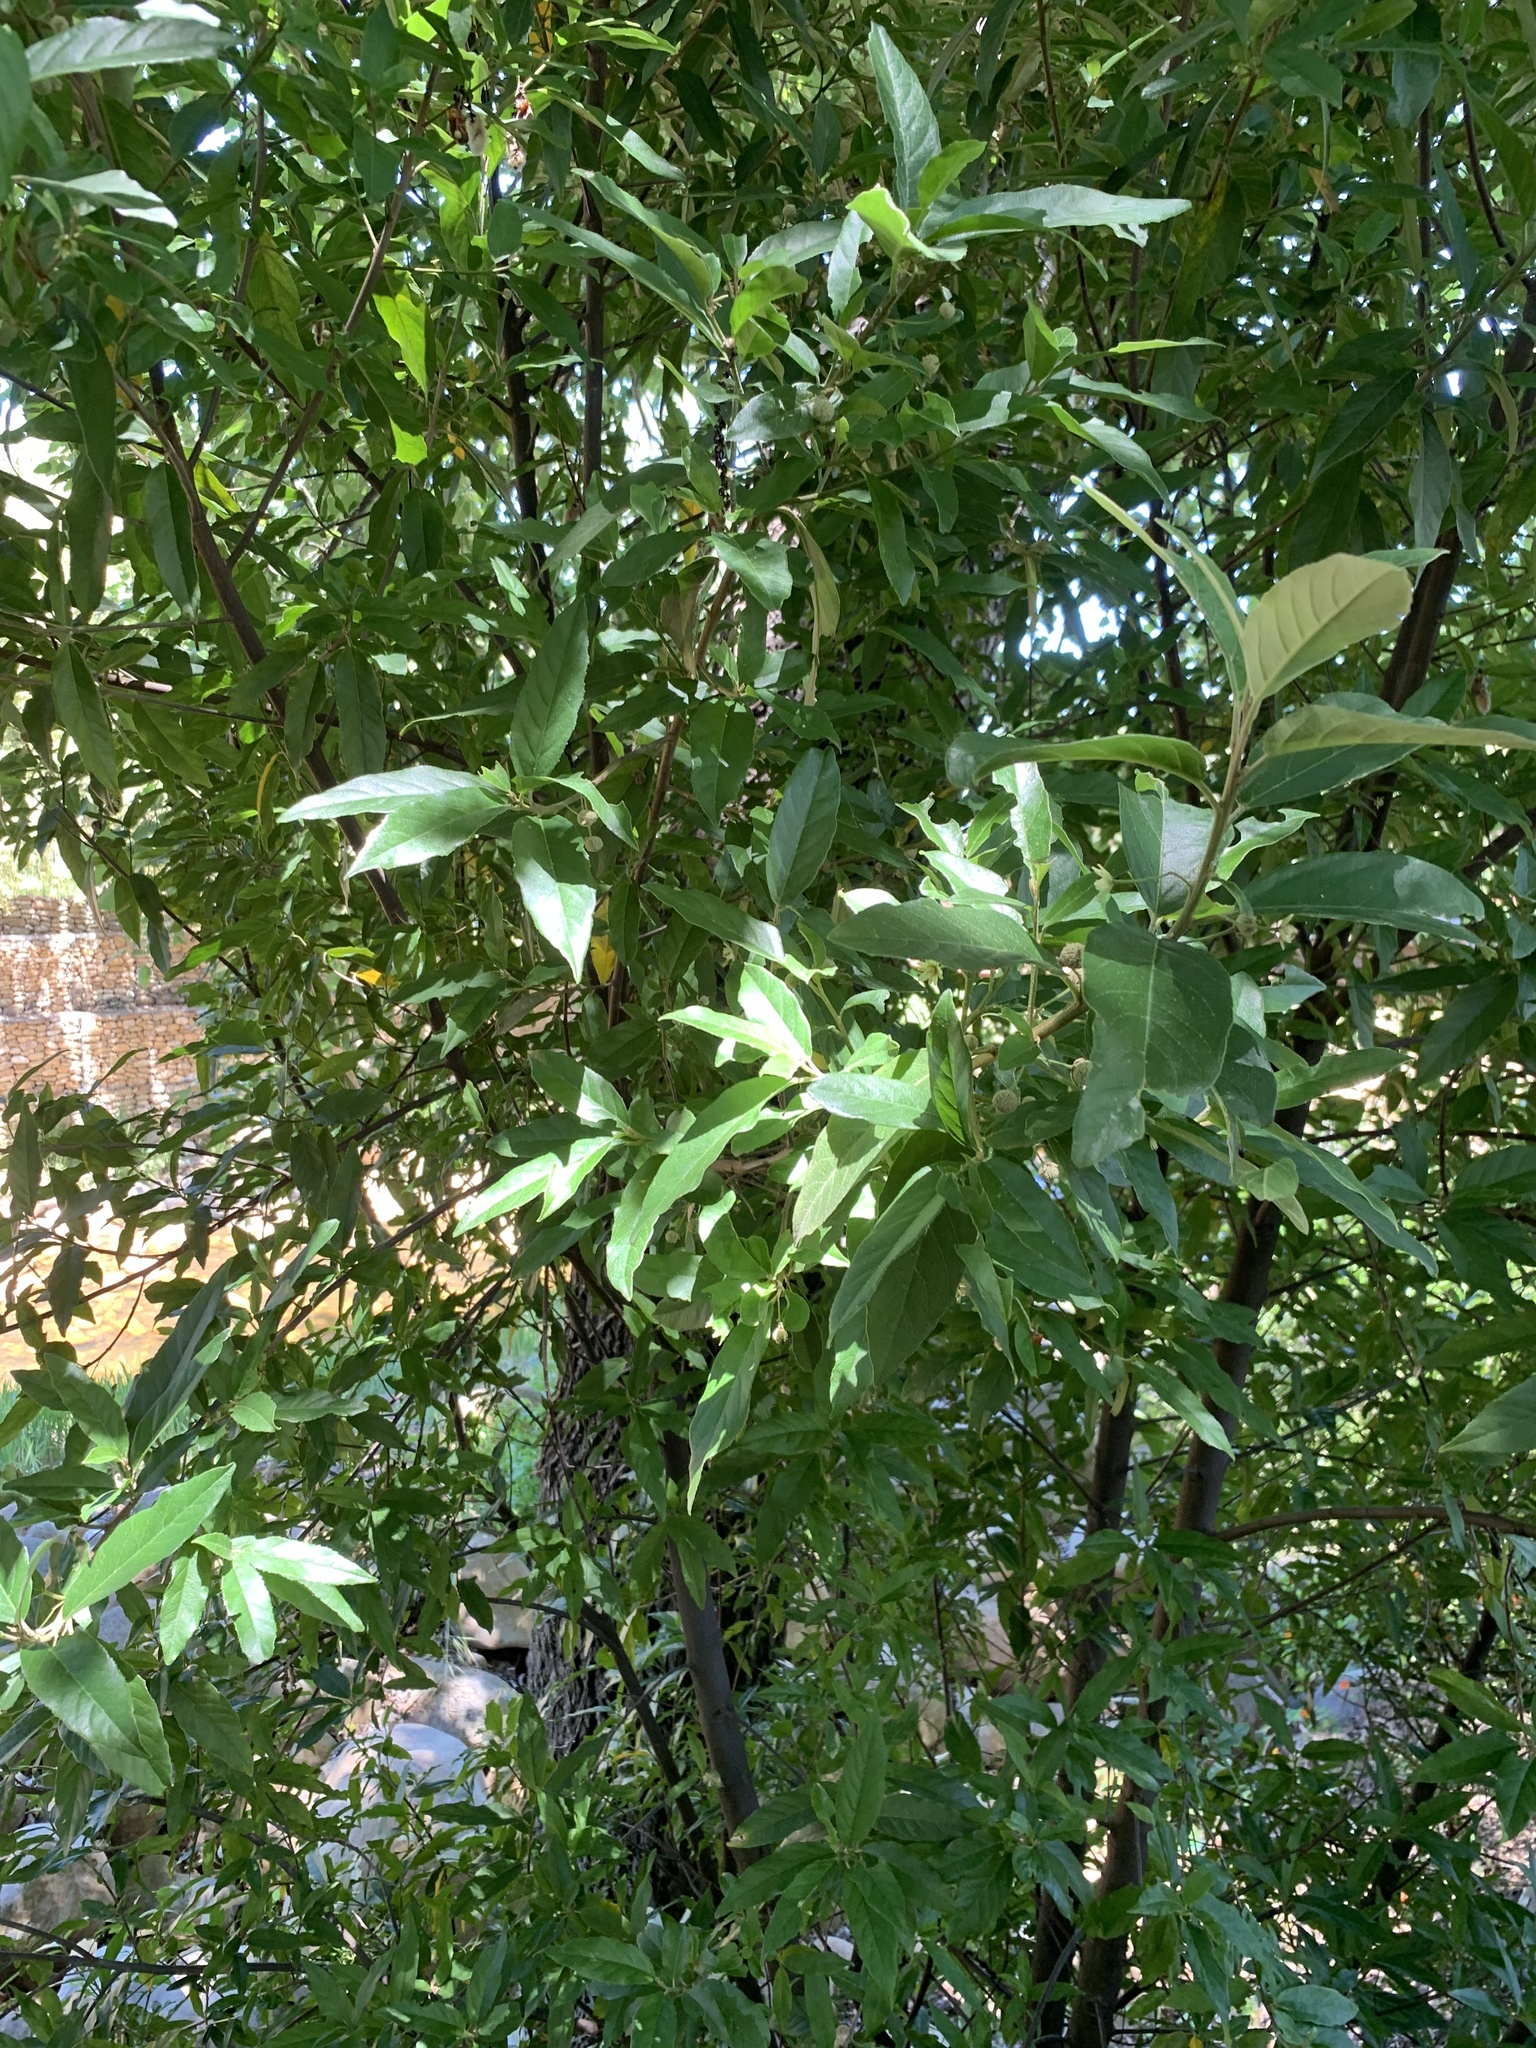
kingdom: Plantae
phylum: Tracheophyta
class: Magnoliopsida
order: Malpighiales
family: Achariaceae
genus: Kiggelaria
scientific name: Kiggelaria africana
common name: Wild peach
